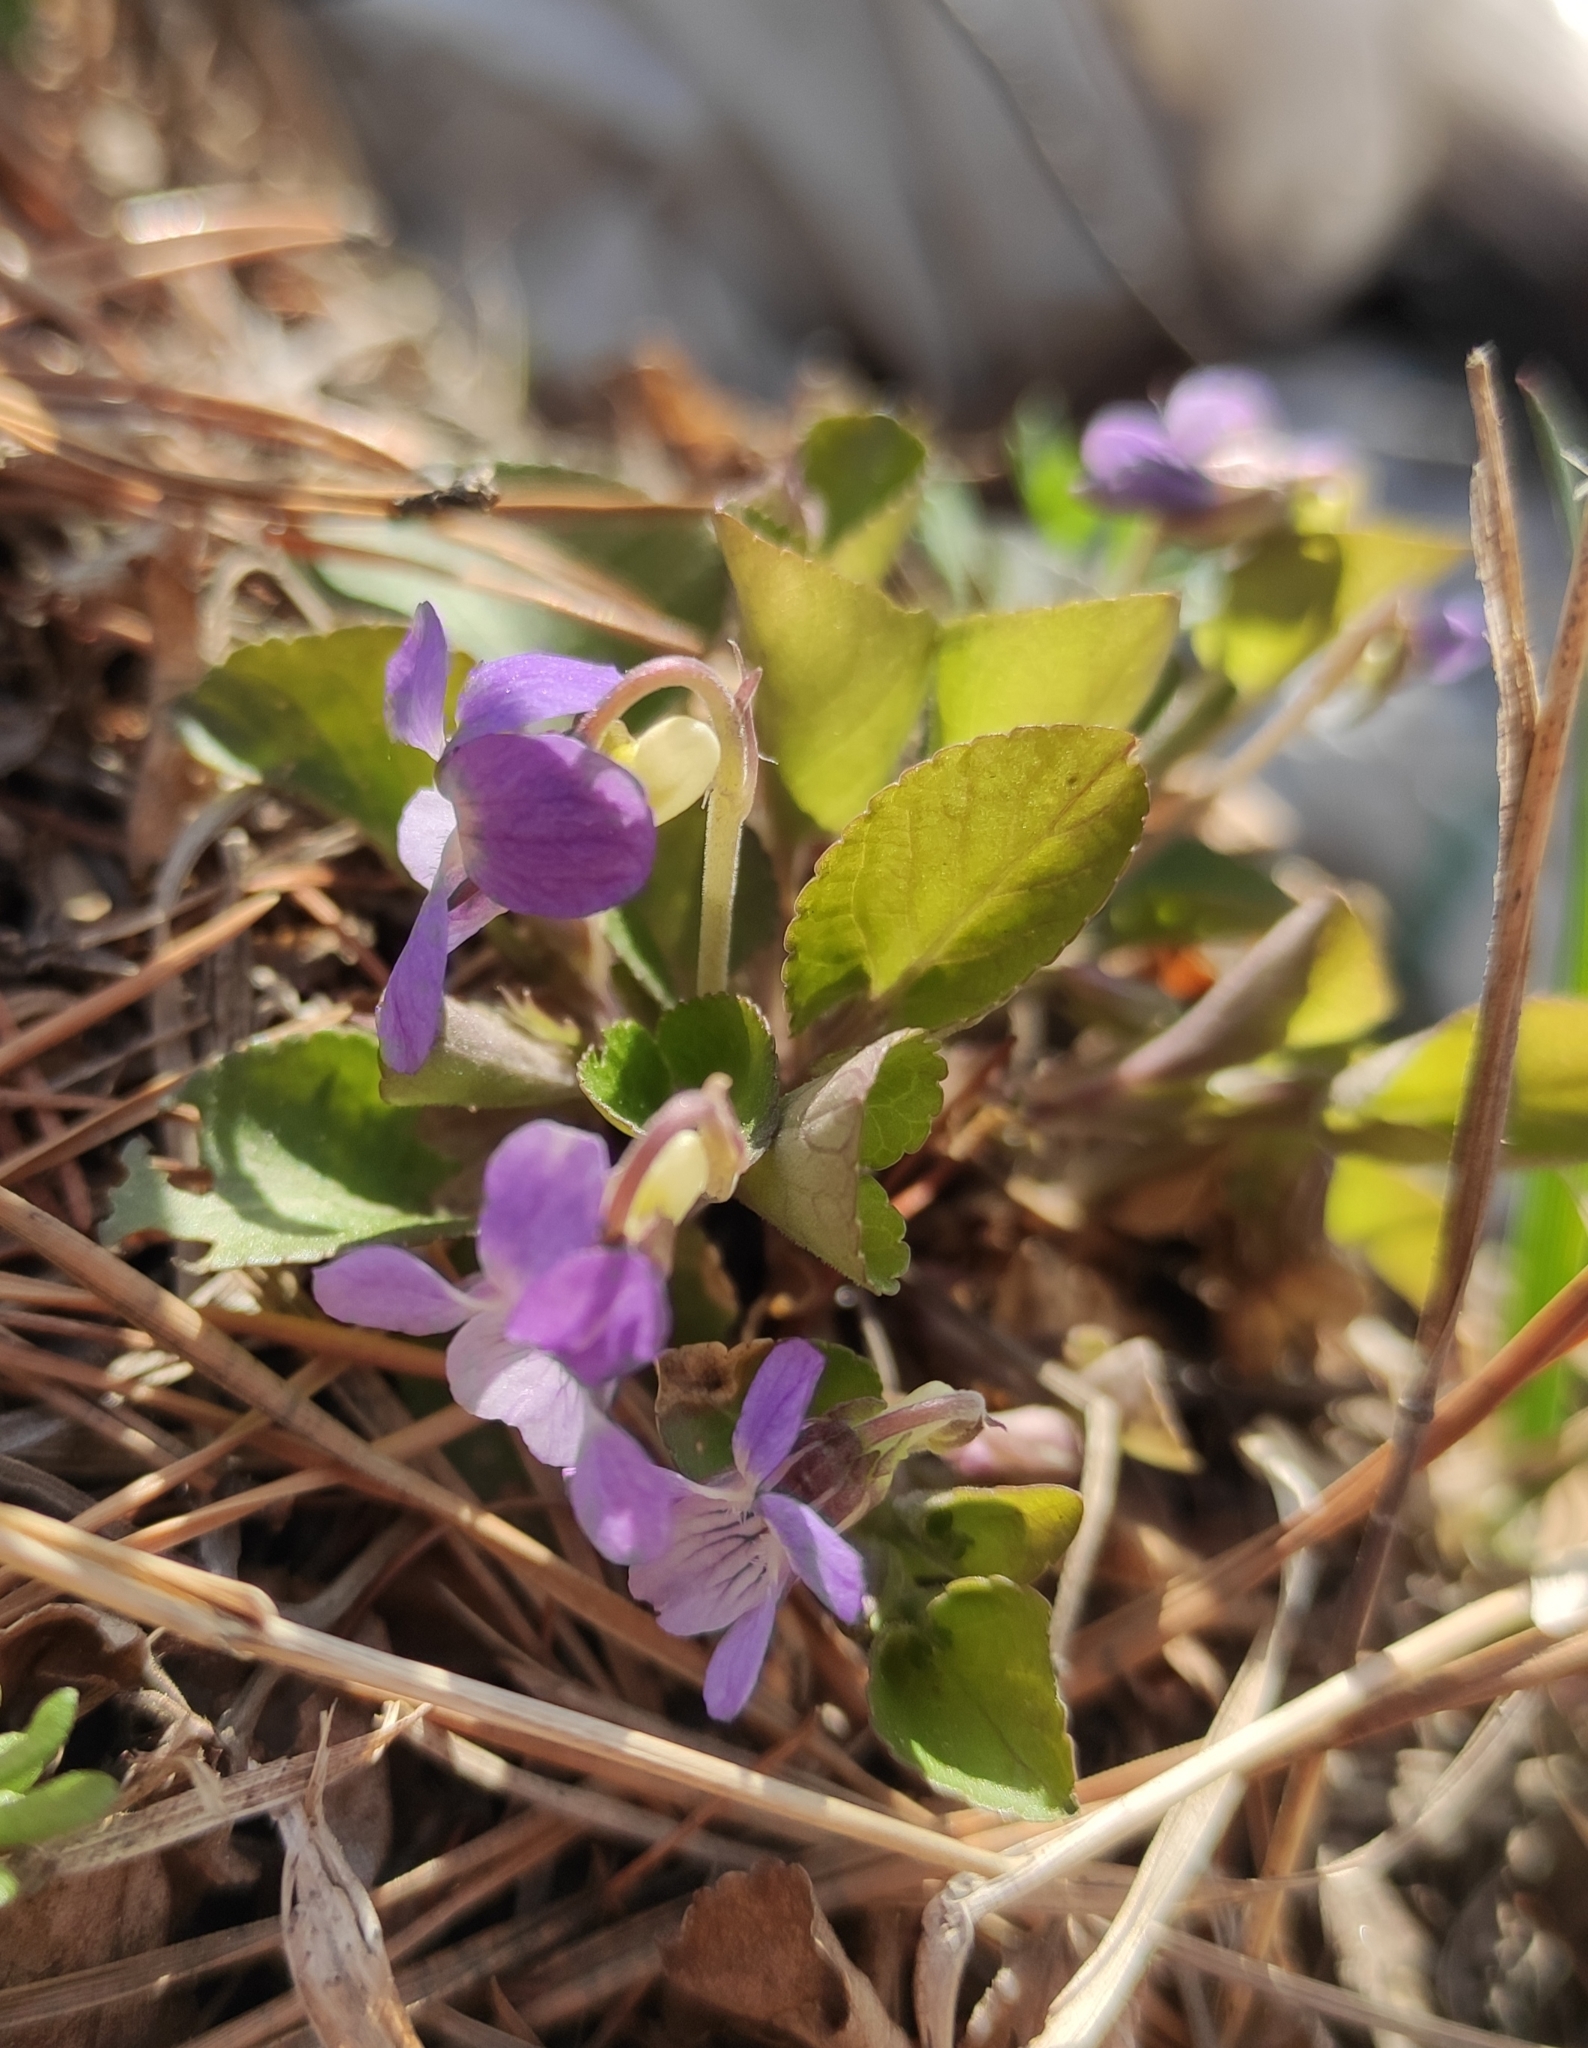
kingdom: Plantae
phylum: Tracheophyta
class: Magnoliopsida
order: Malpighiales
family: Violaceae
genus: Viola
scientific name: Viola rupestris
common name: Teesdale violet
